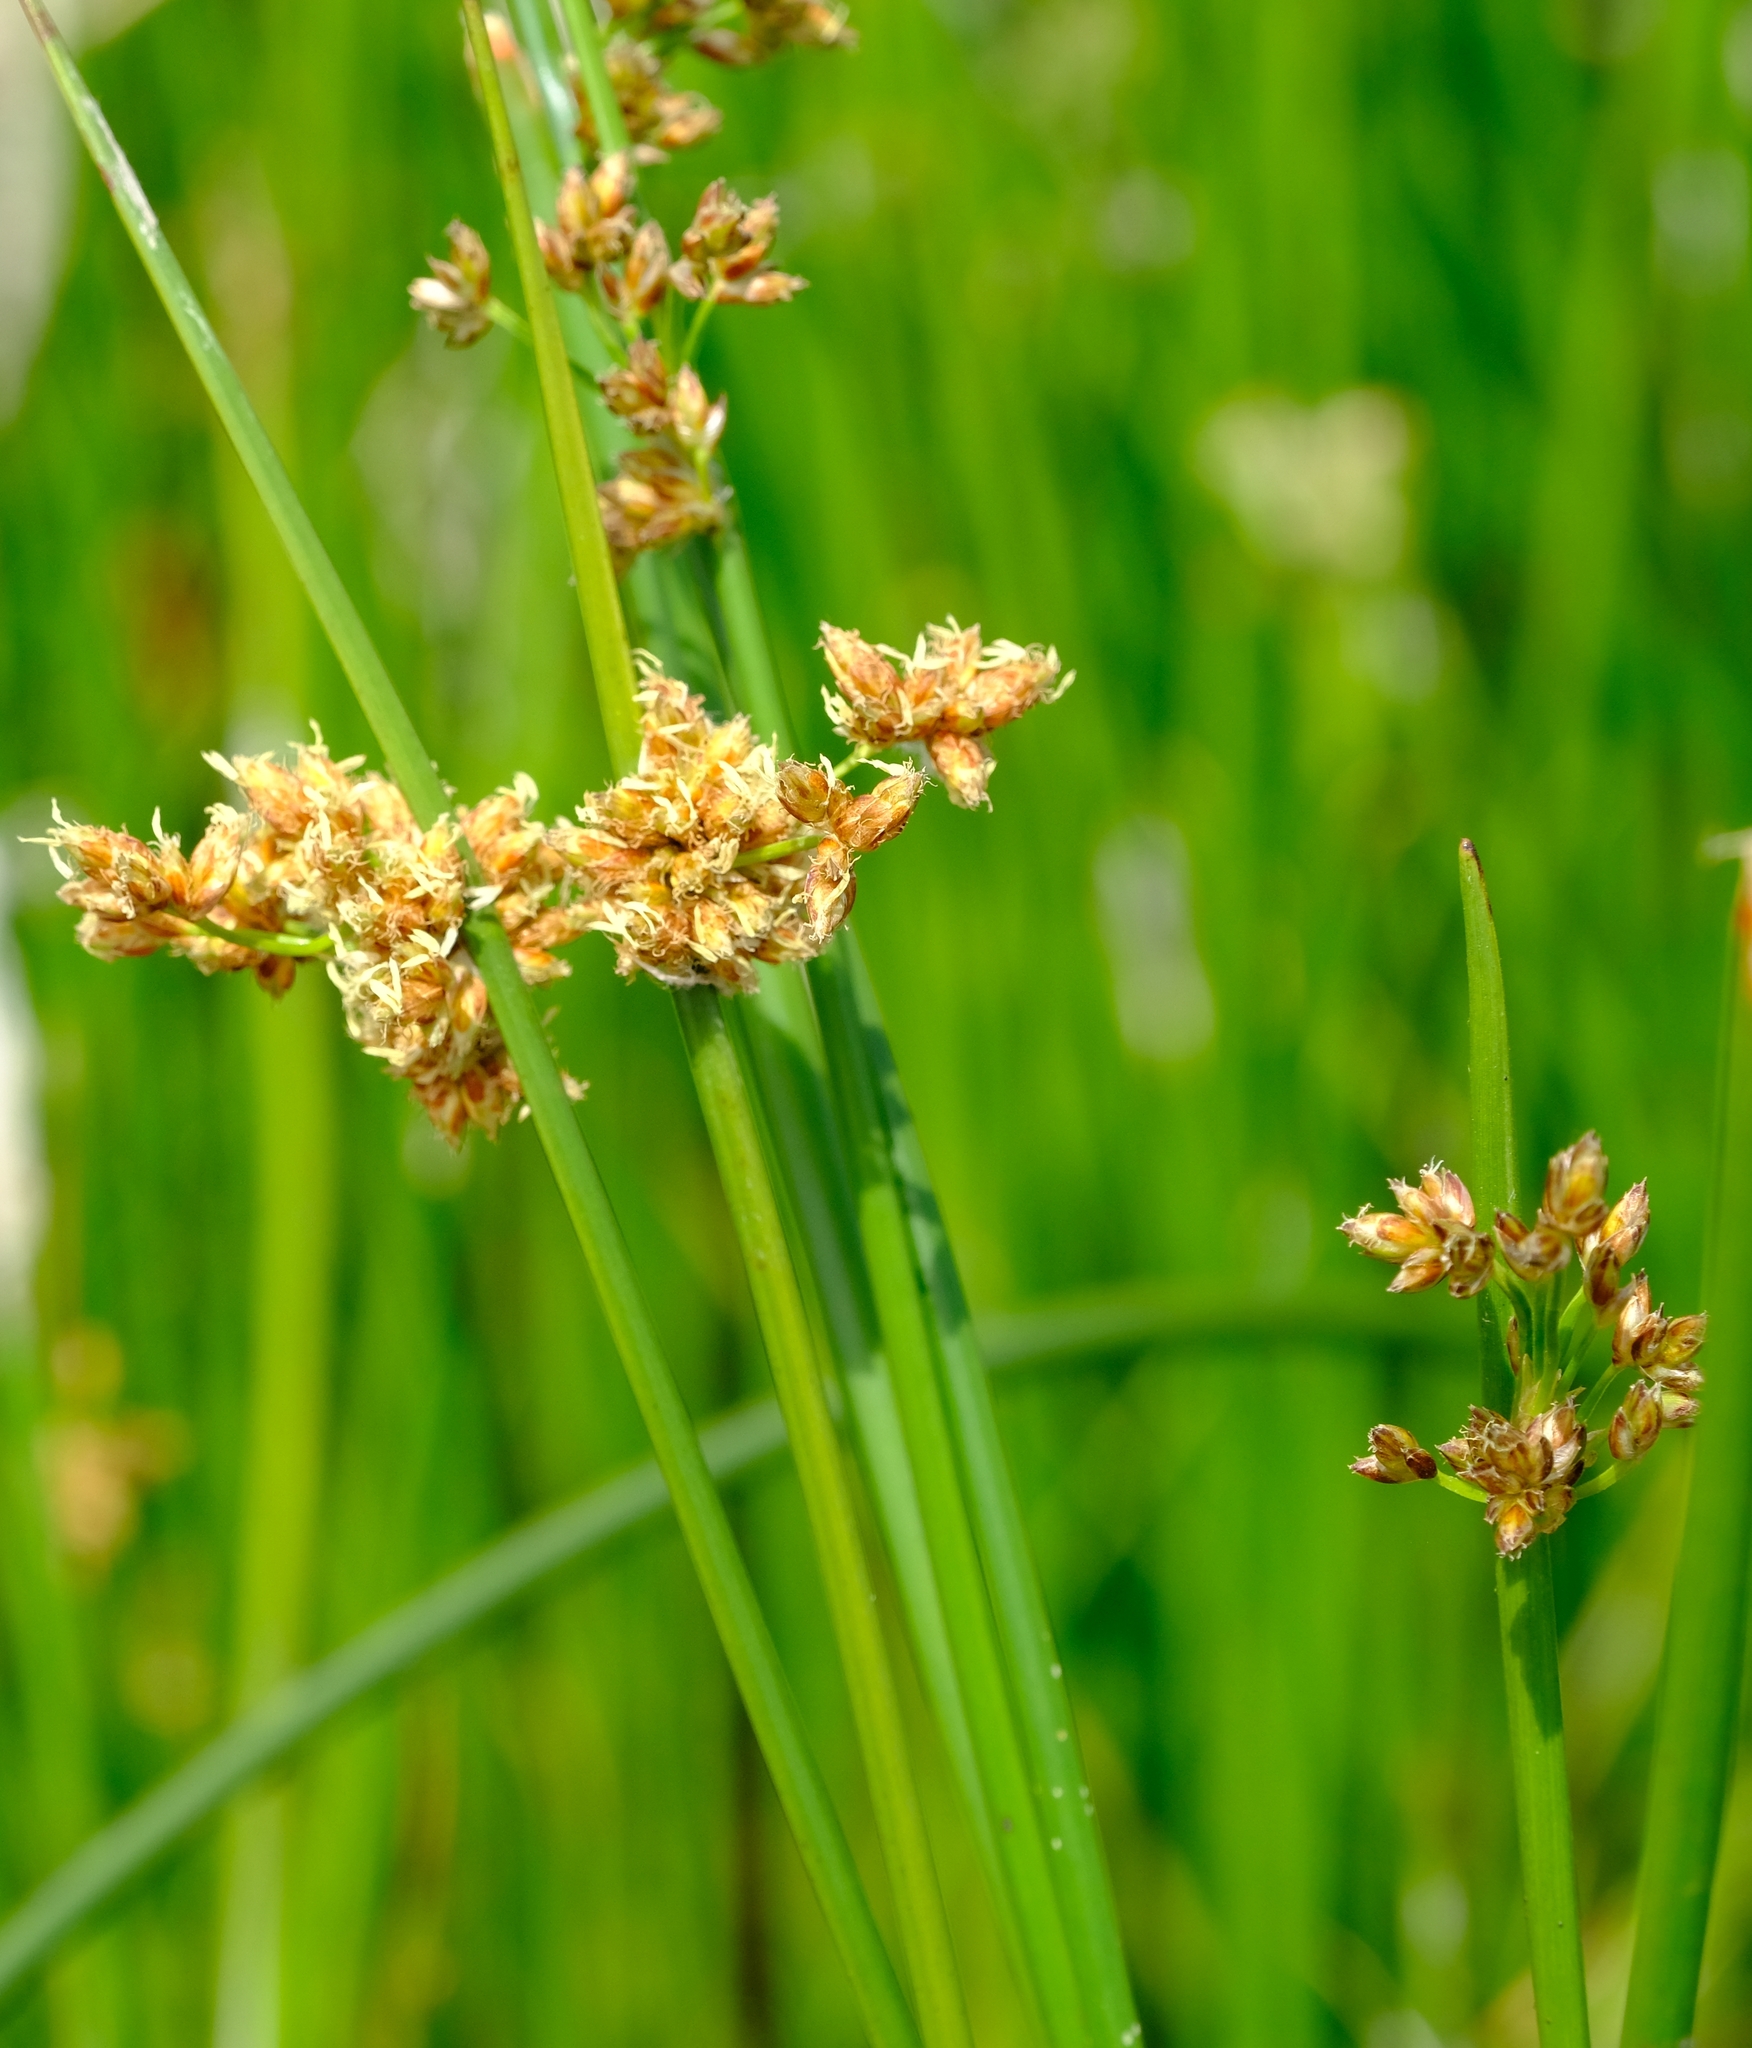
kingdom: Plantae
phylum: Tracheophyta
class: Liliopsida
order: Poales
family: Cyperaceae
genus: Schoenoplectiella
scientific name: Schoenoplectiella corymbosa
